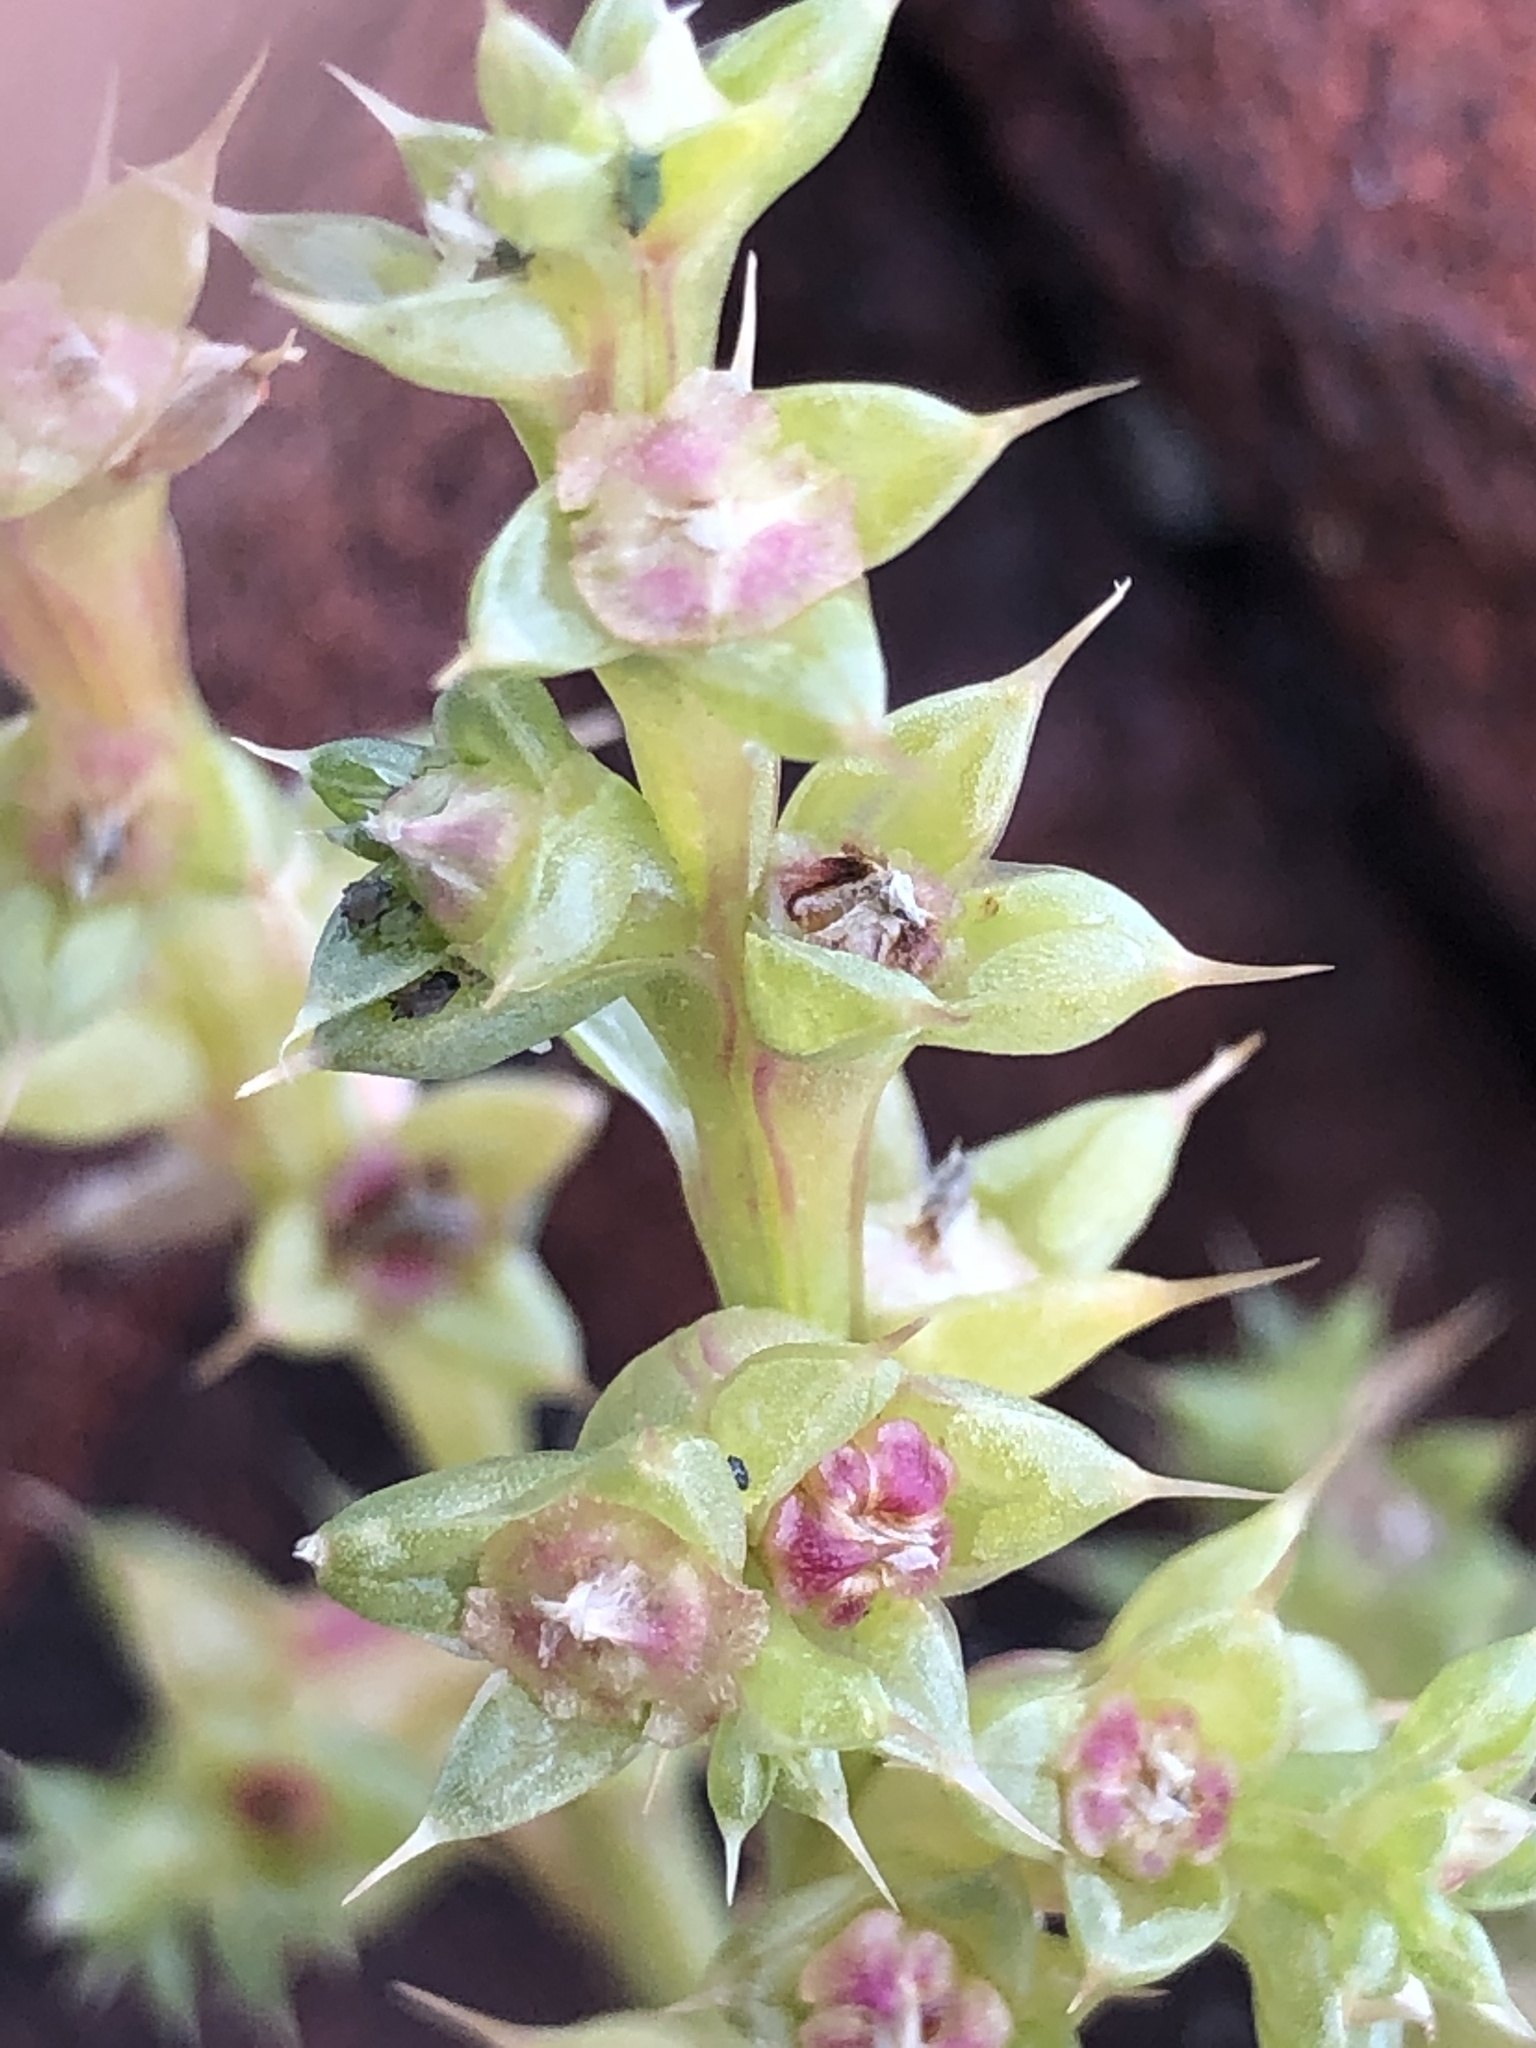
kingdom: Plantae
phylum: Tracheophyta
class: Magnoliopsida
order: Caryophyllales
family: Amaranthaceae
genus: Salsola
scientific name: Salsola kali
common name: Saltwort
